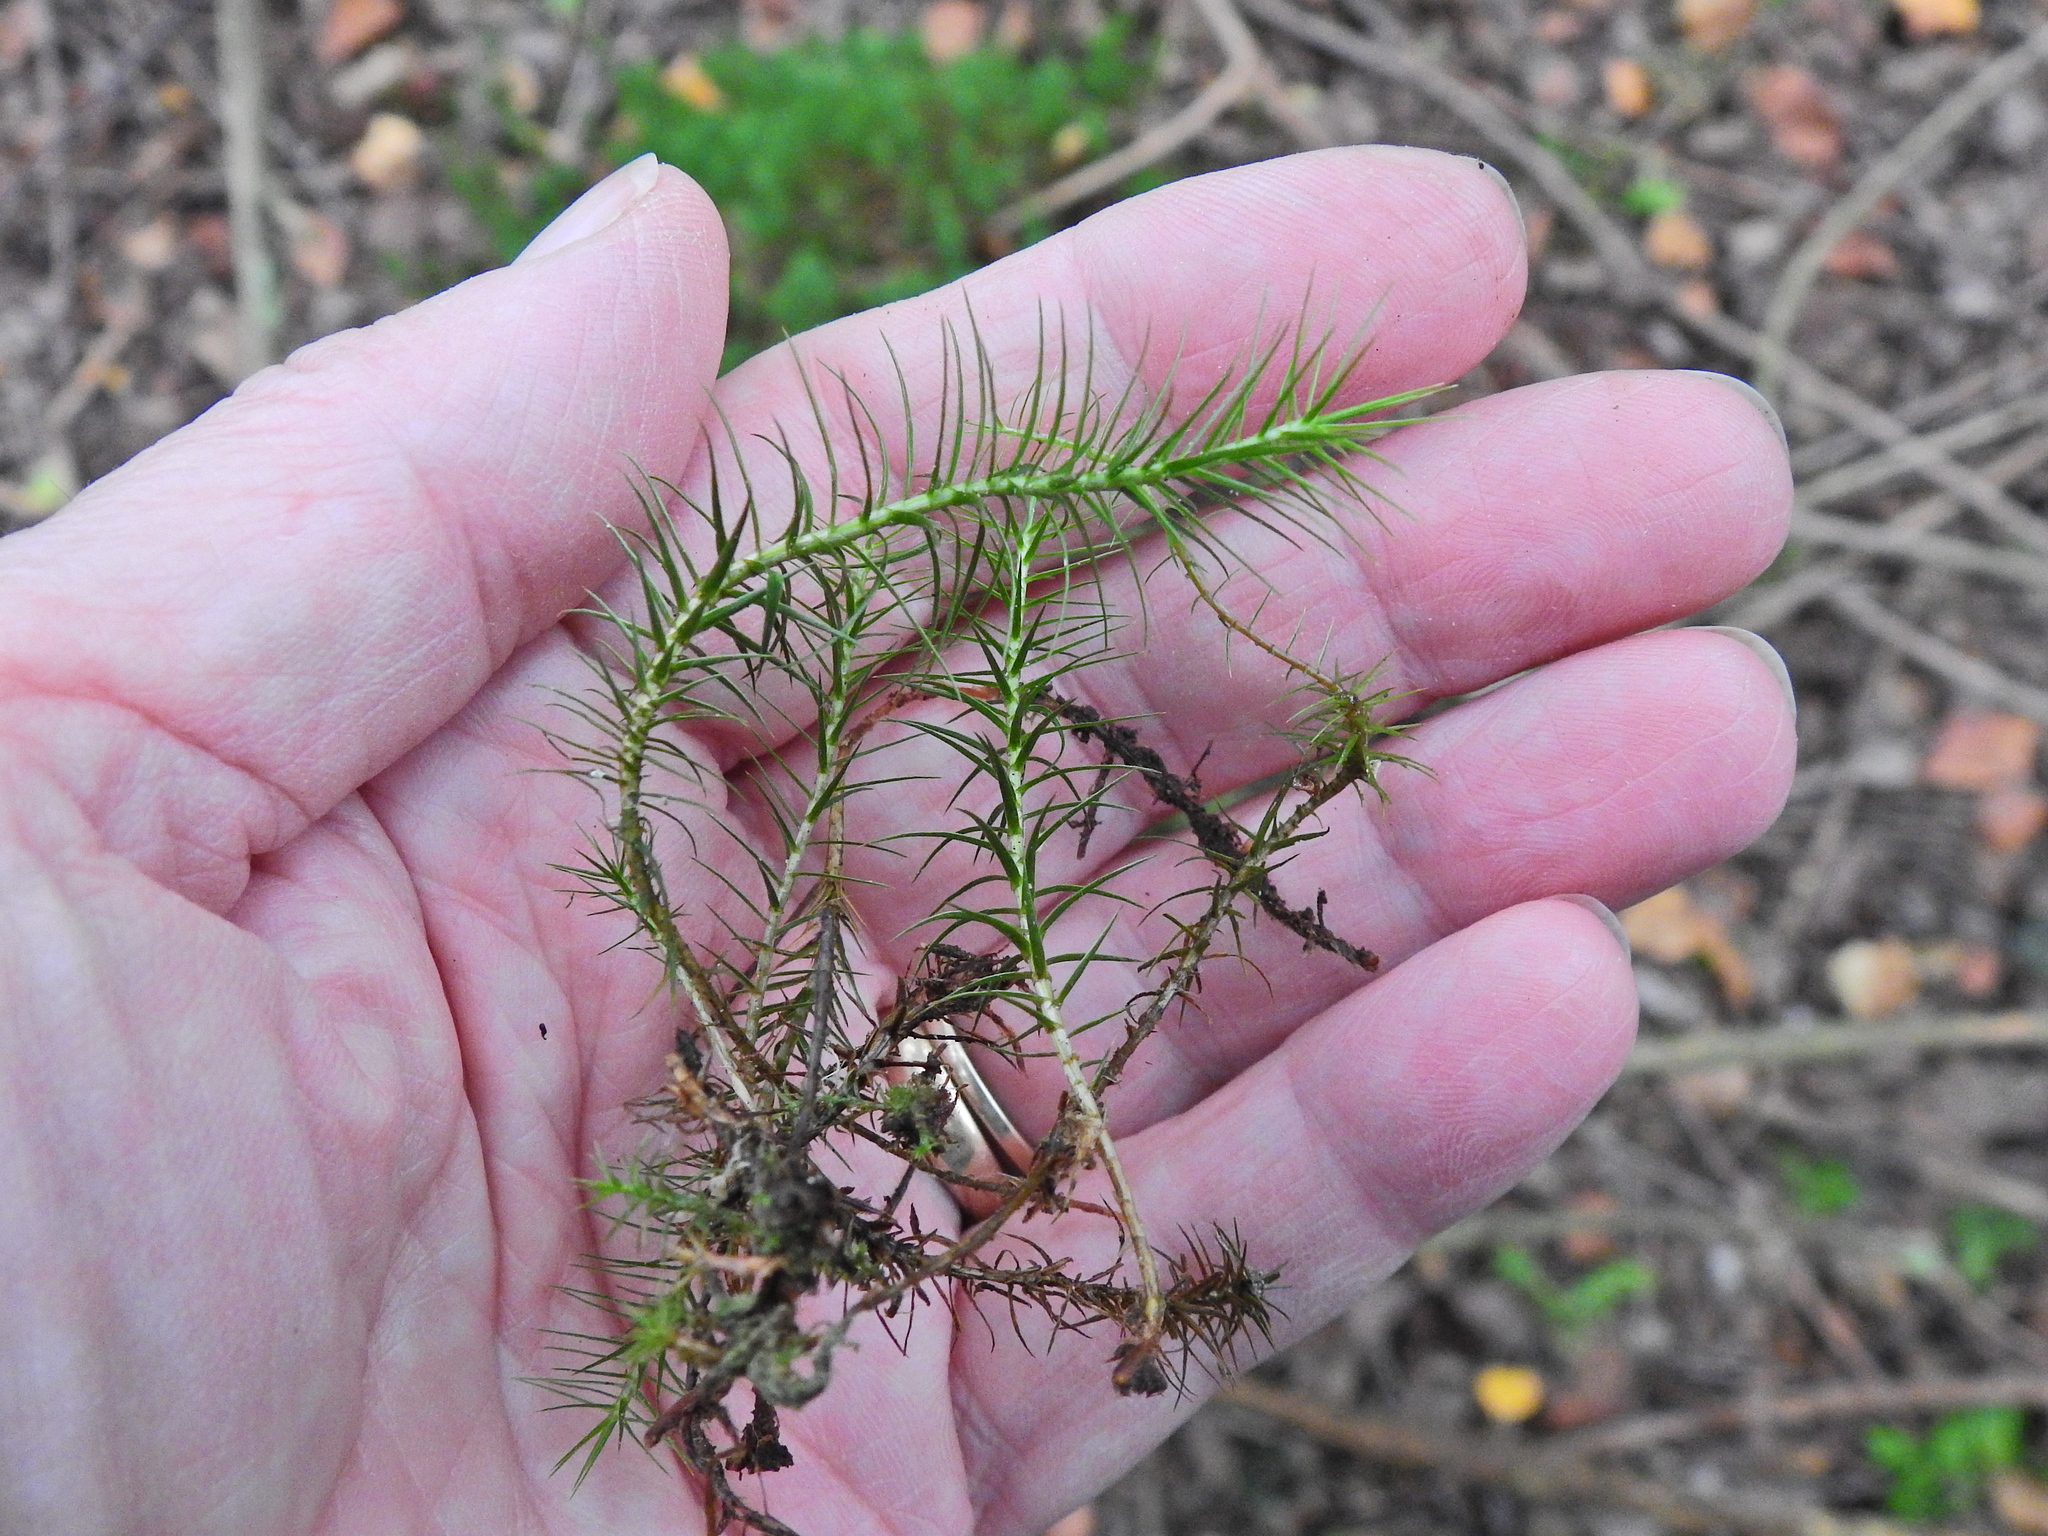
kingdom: Plantae
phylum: Bryophyta
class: Polytrichopsida
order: Polytrichales
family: Polytrichaceae
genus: Polytrichum
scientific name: Polytrichum commune
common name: Common haircap
